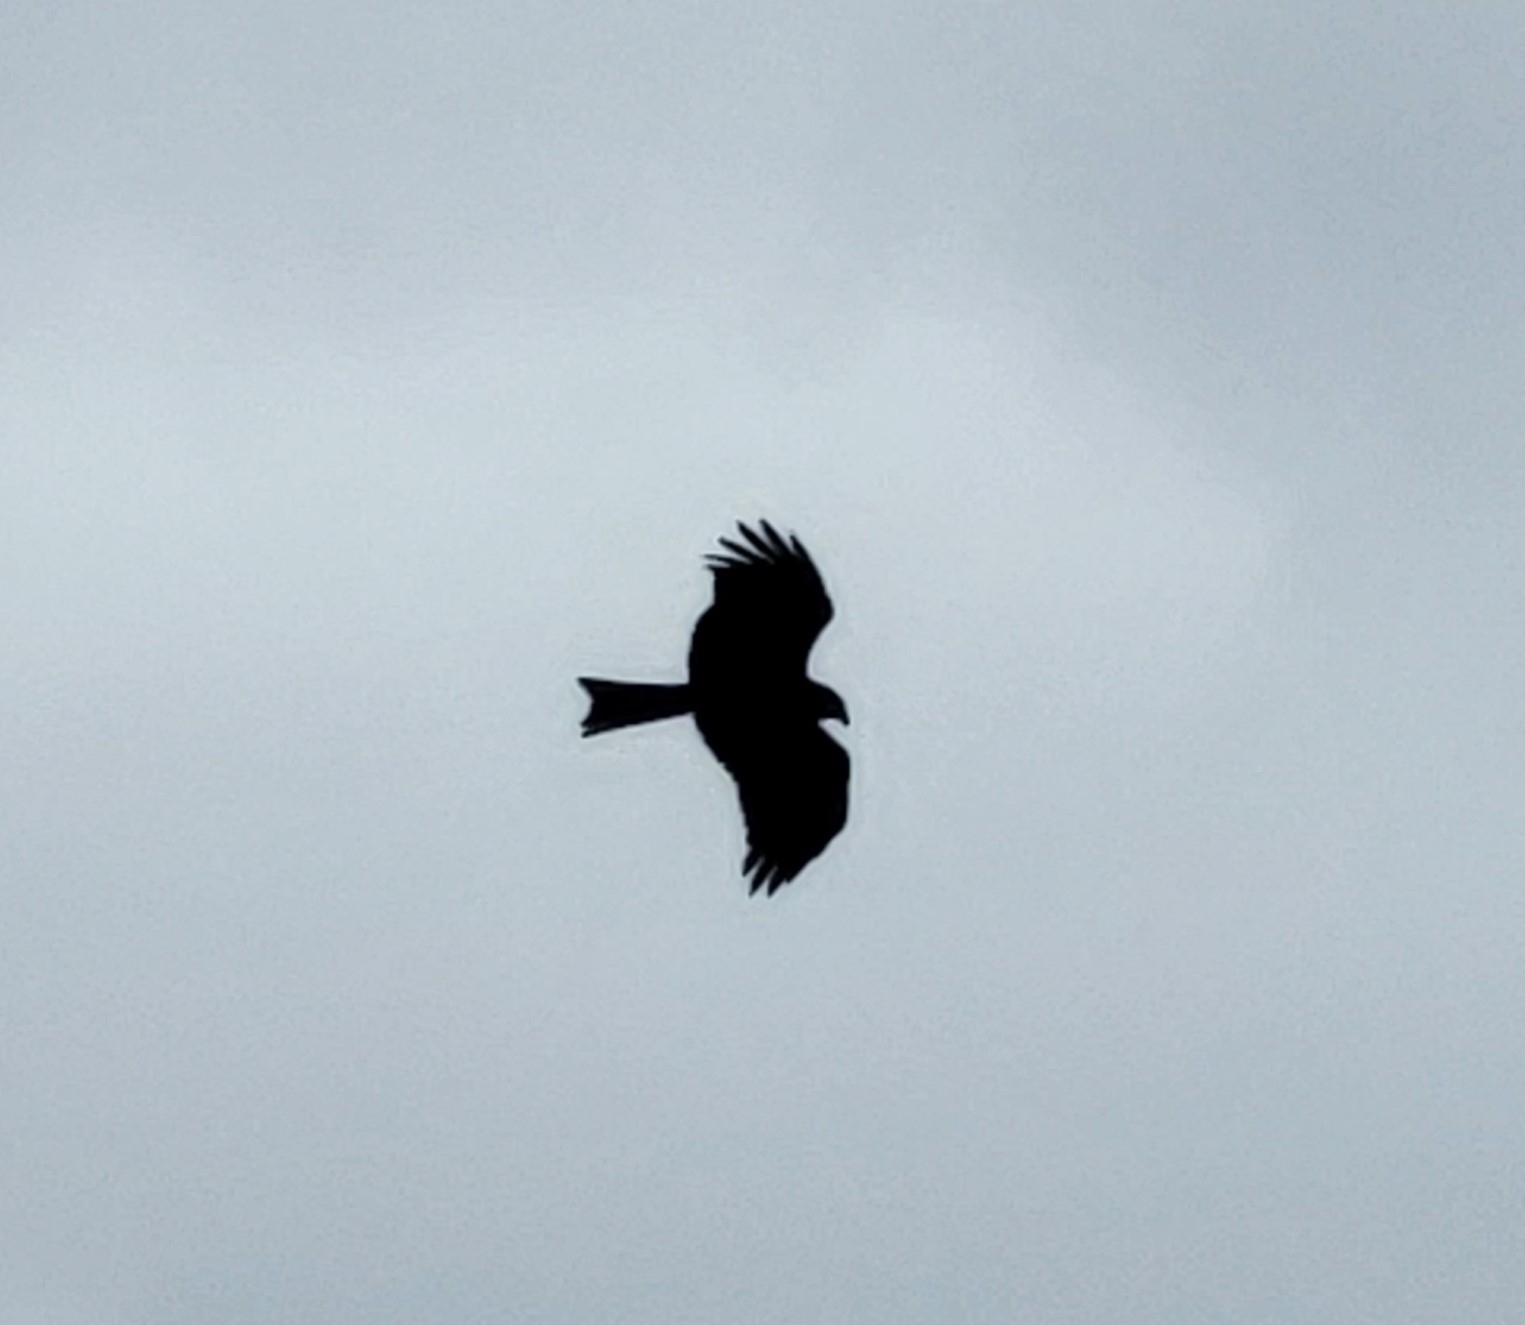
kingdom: Animalia
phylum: Chordata
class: Aves
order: Accipitriformes
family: Accipitridae
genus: Milvus
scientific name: Milvus migrans
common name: Black kite
